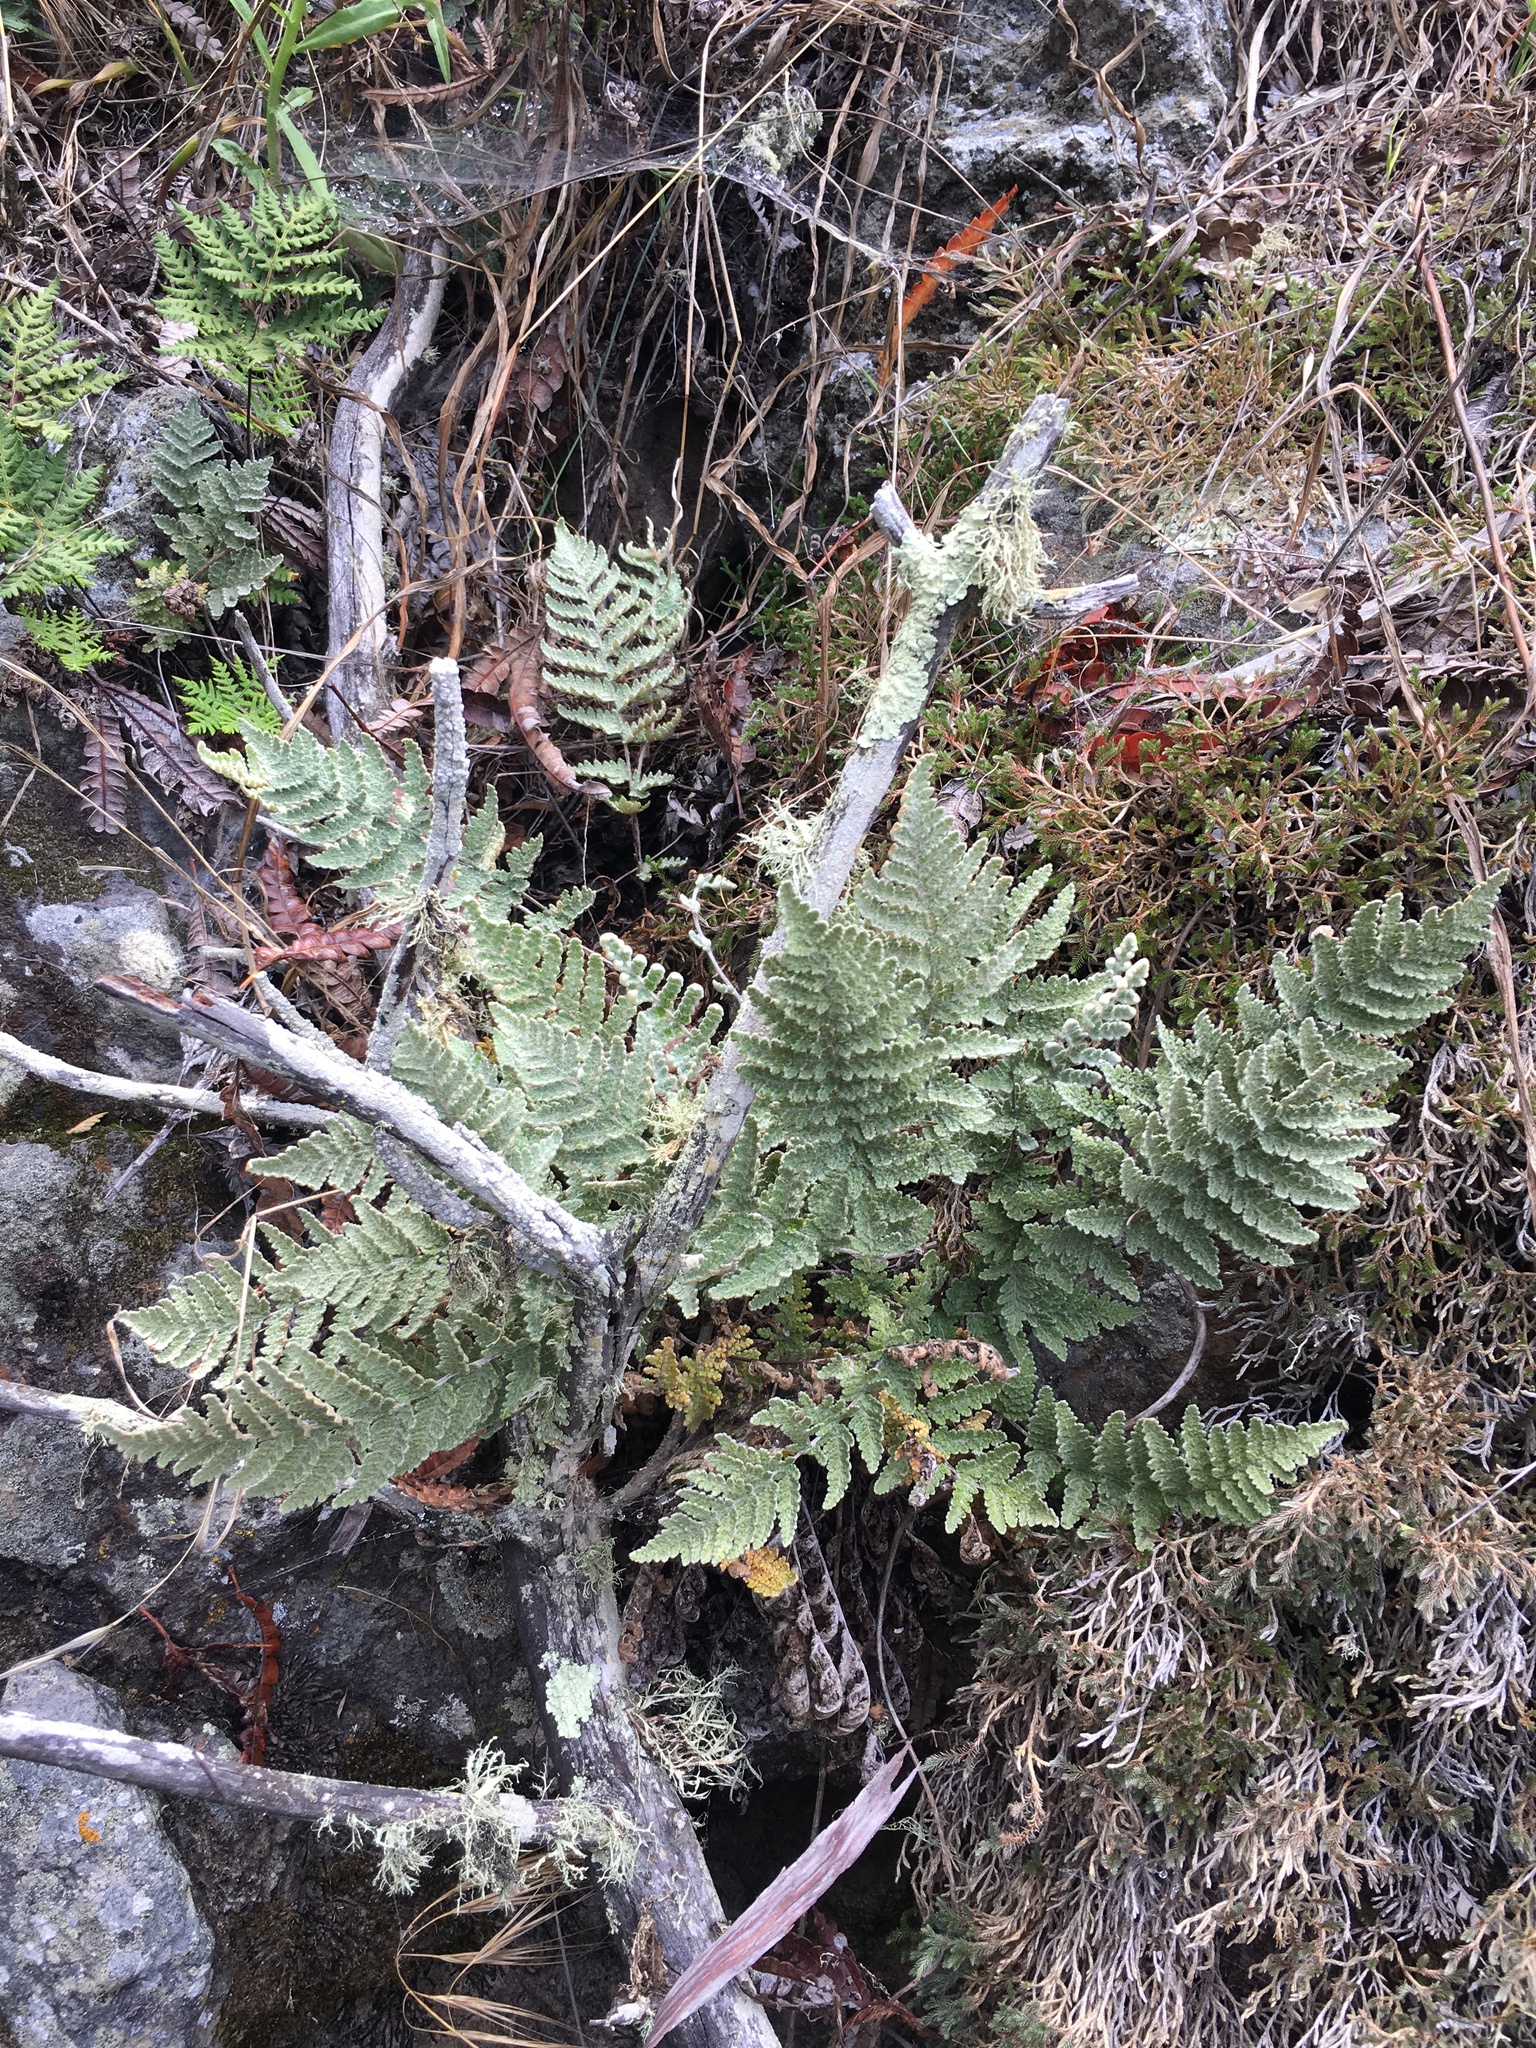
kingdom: Plantae
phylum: Tracheophyta
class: Polypodiopsida
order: Polypodiales
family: Pteridaceae
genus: Myriopteris
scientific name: Myriopteris newberryi
